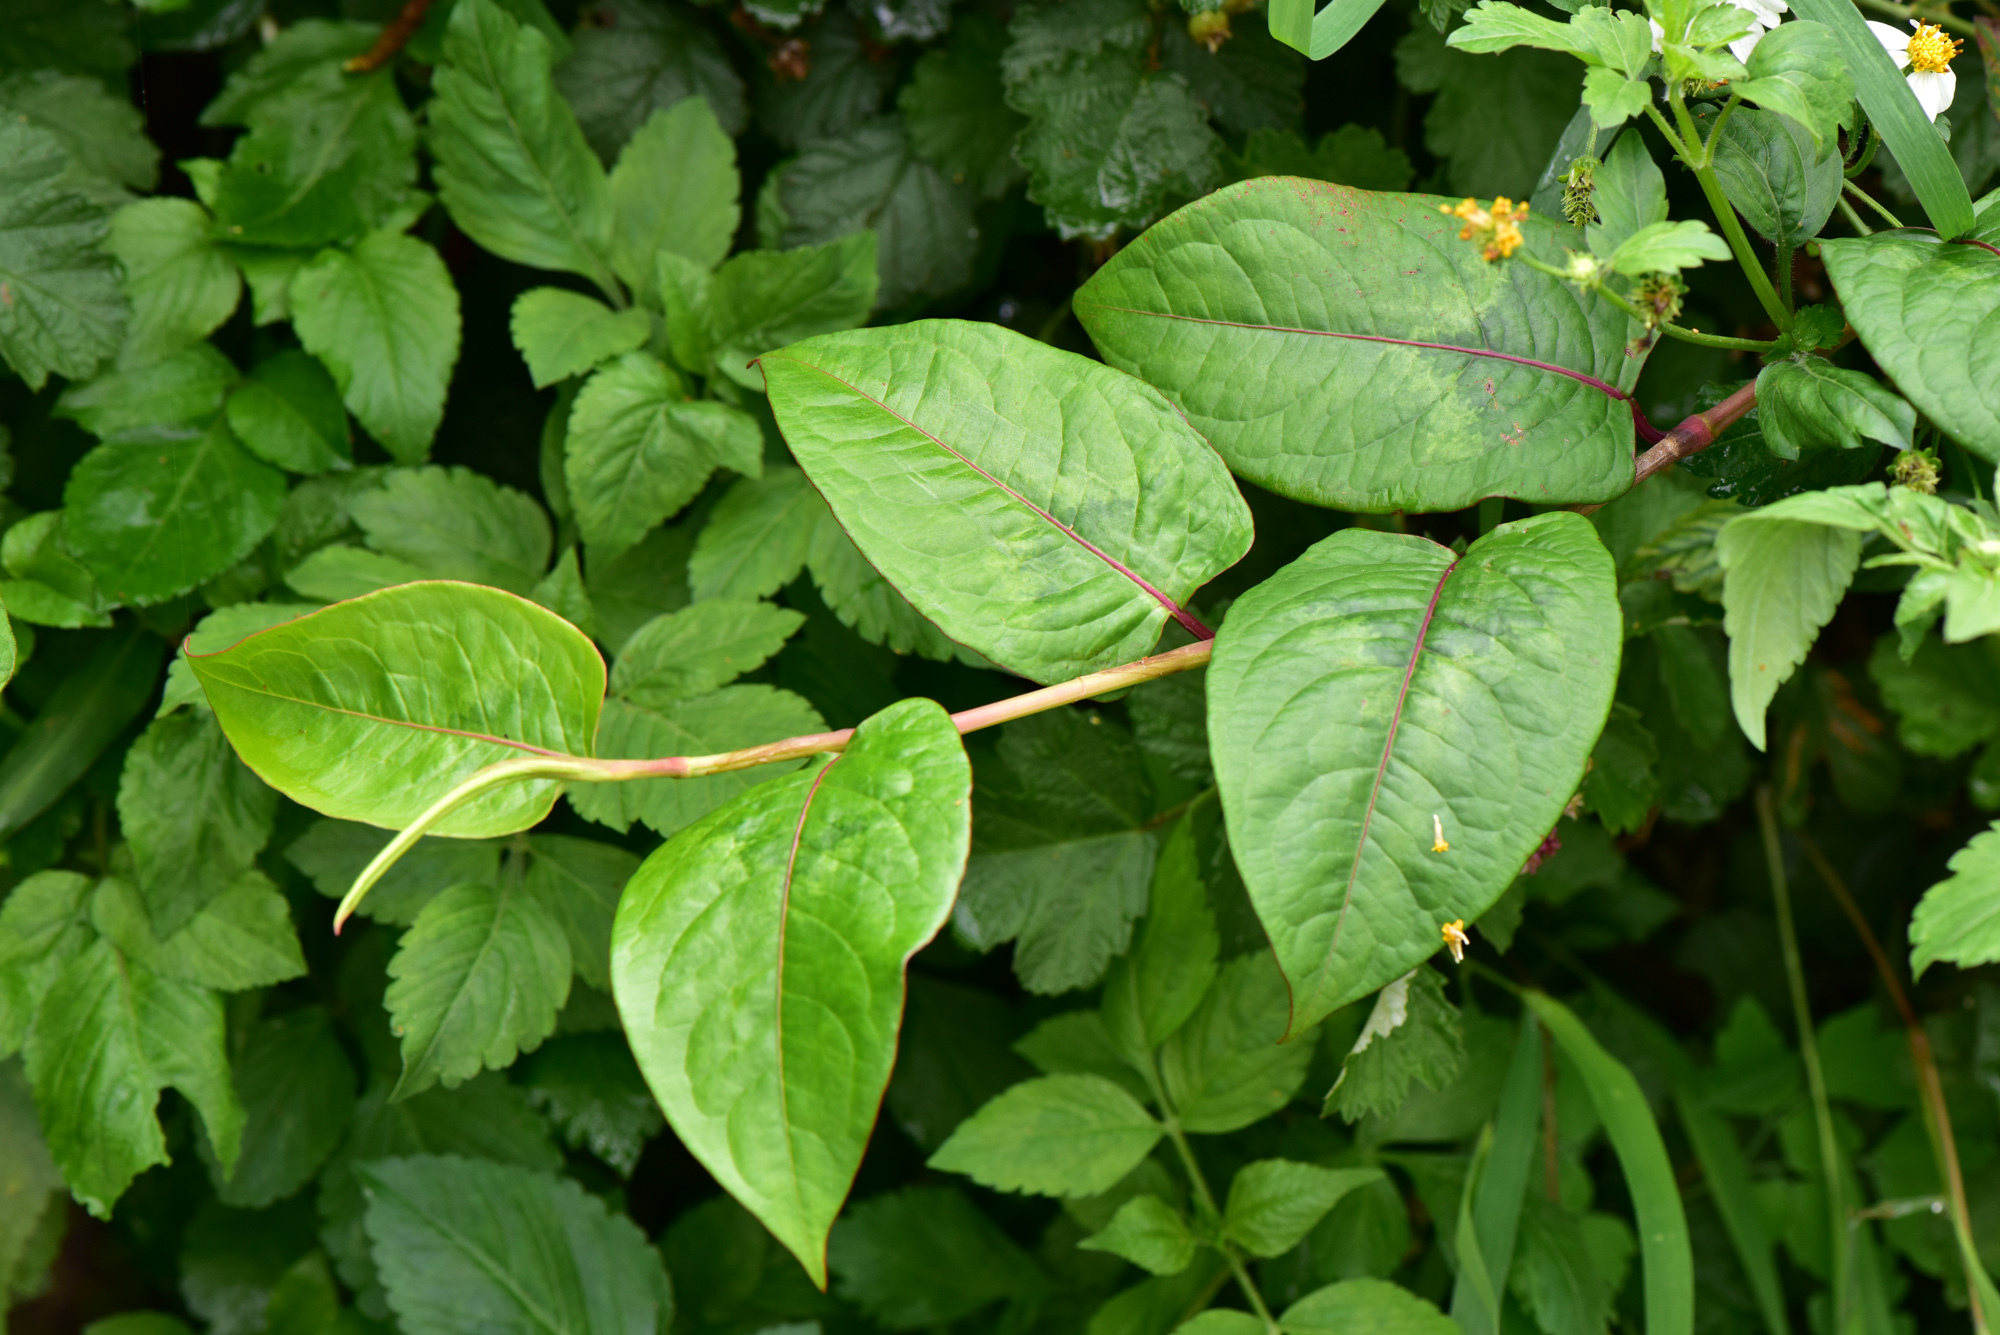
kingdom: Plantae
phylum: Tracheophyta
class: Magnoliopsida
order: Caryophyllales
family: Polygonaceae
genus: Persicaria
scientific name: Persicaria chinensis
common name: Chinese knotweed
